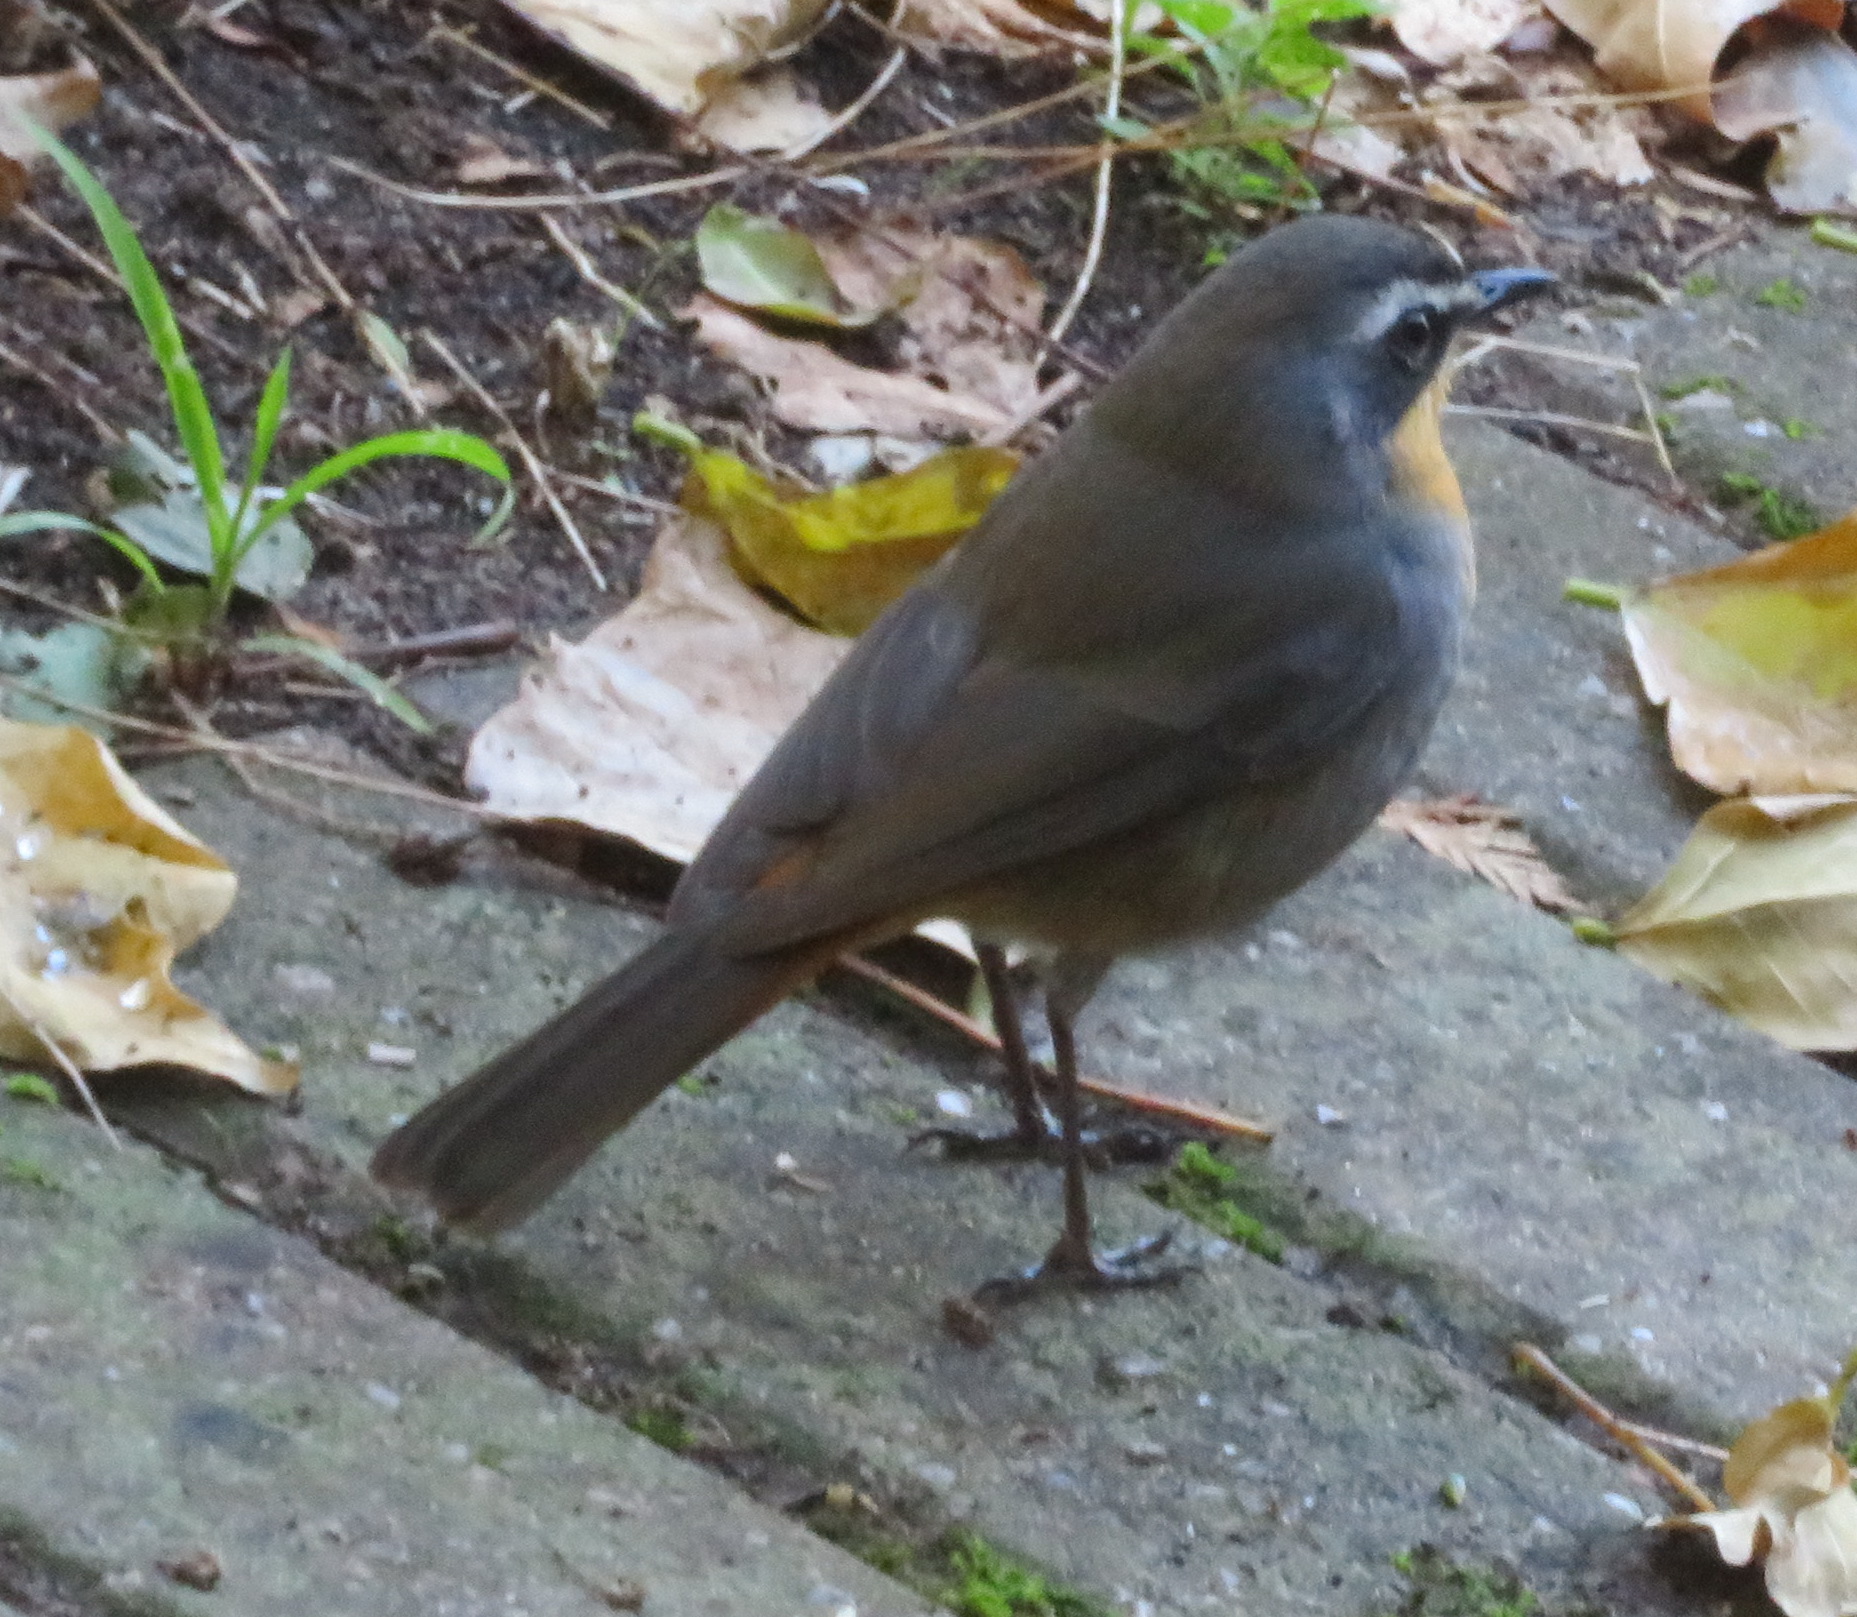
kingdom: Animalia
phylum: Chordata
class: Aves
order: Passeriformes
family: Muscicapidae
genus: Cossypha
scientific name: Cossypha caffra
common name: Cape robin-chat
